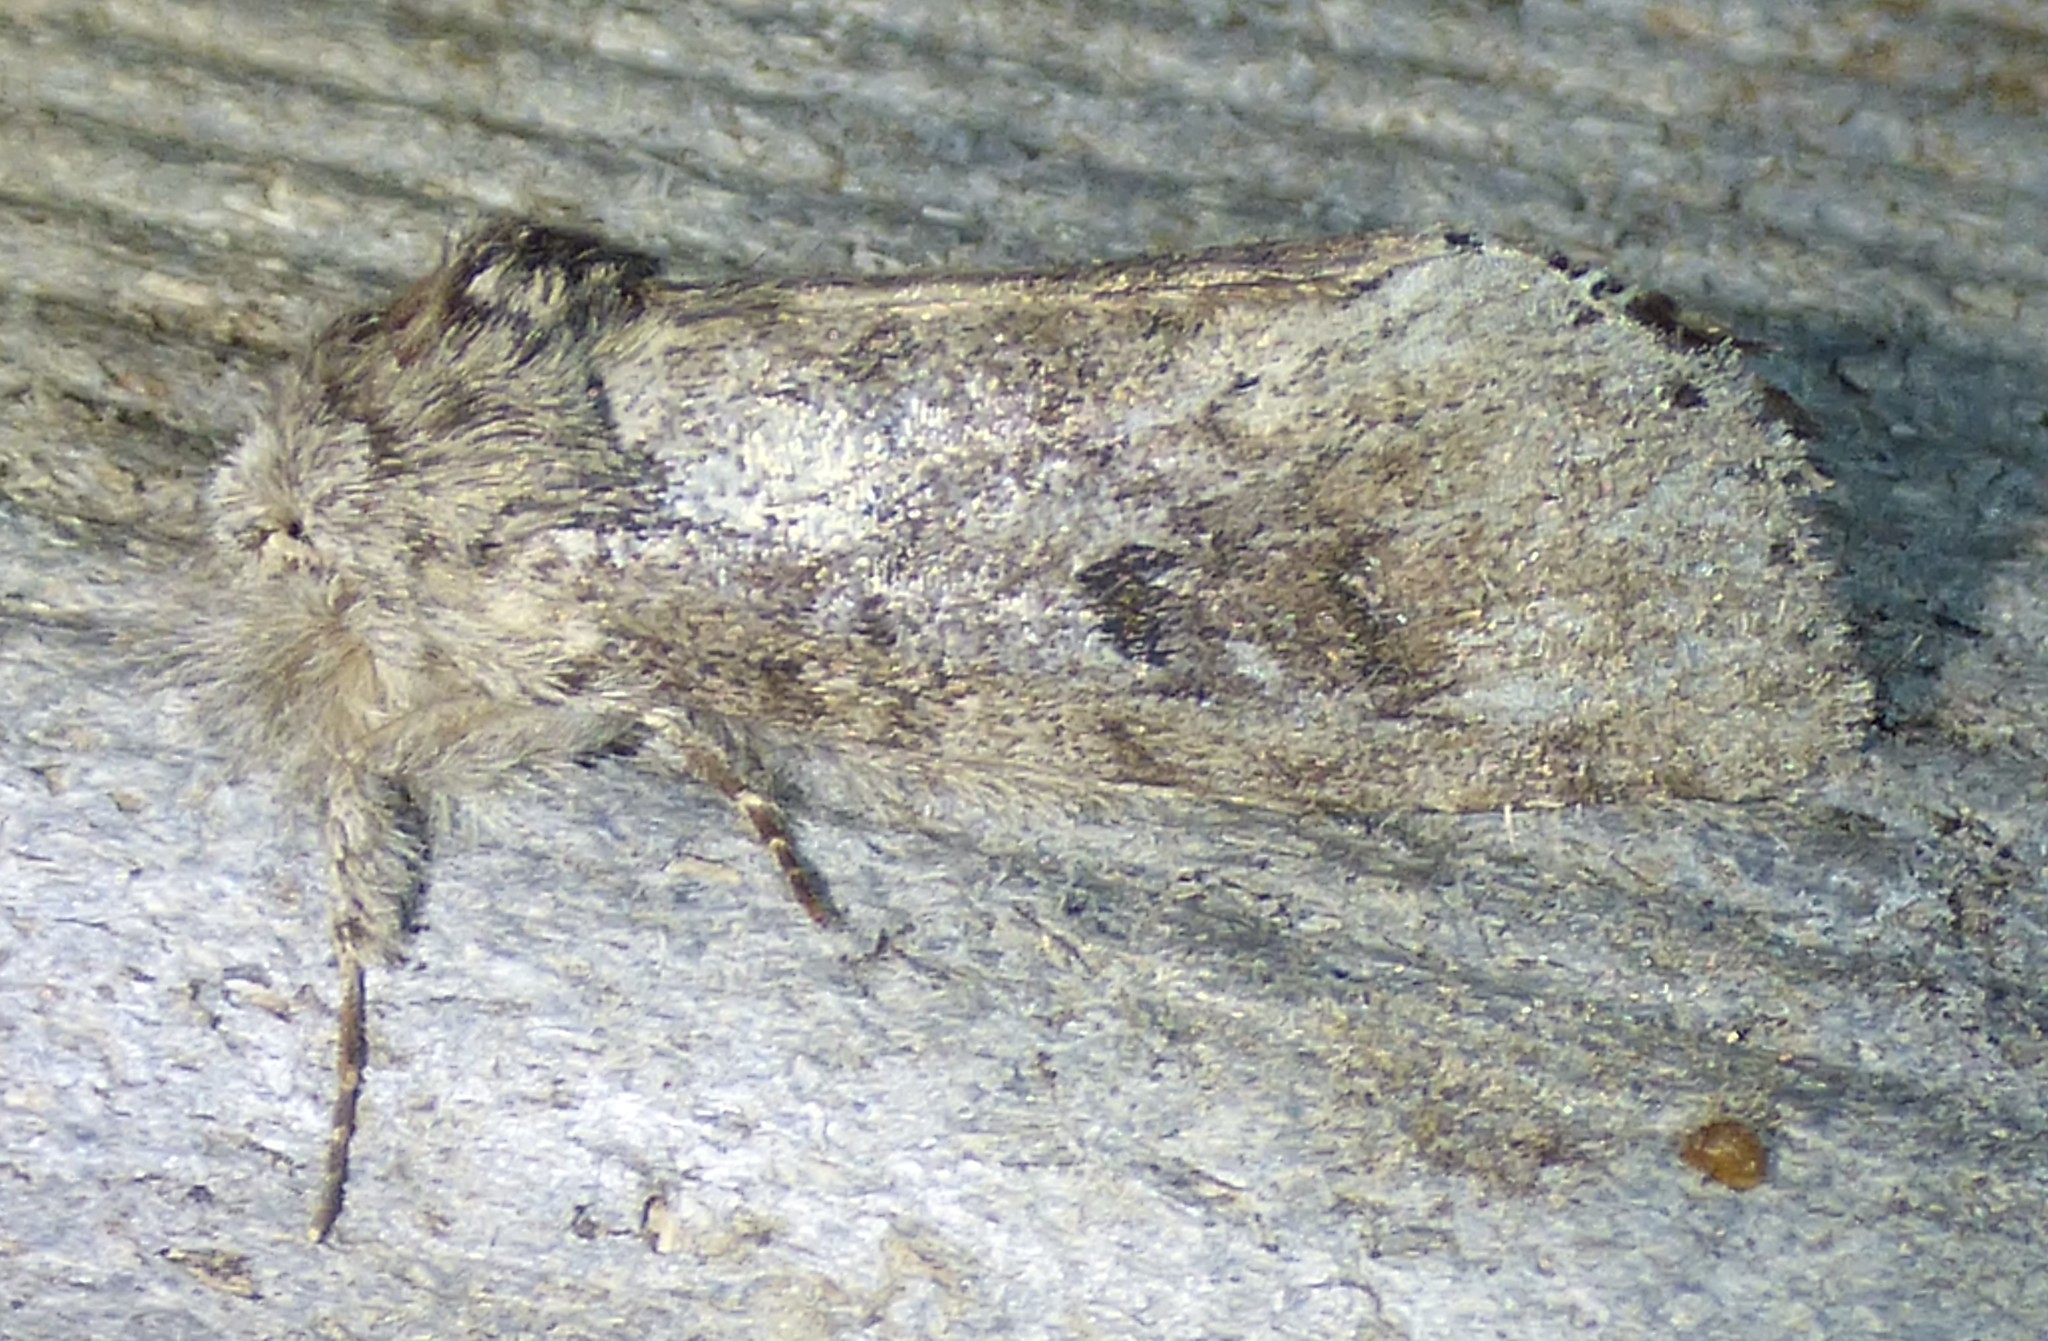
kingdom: Animalia
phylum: Arthropoda
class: Insecta
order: Lepidoptera
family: Notodontidae
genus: Lochmaeus
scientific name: Lochmaeus manteo
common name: Variable oakleaf caterpillar moth
